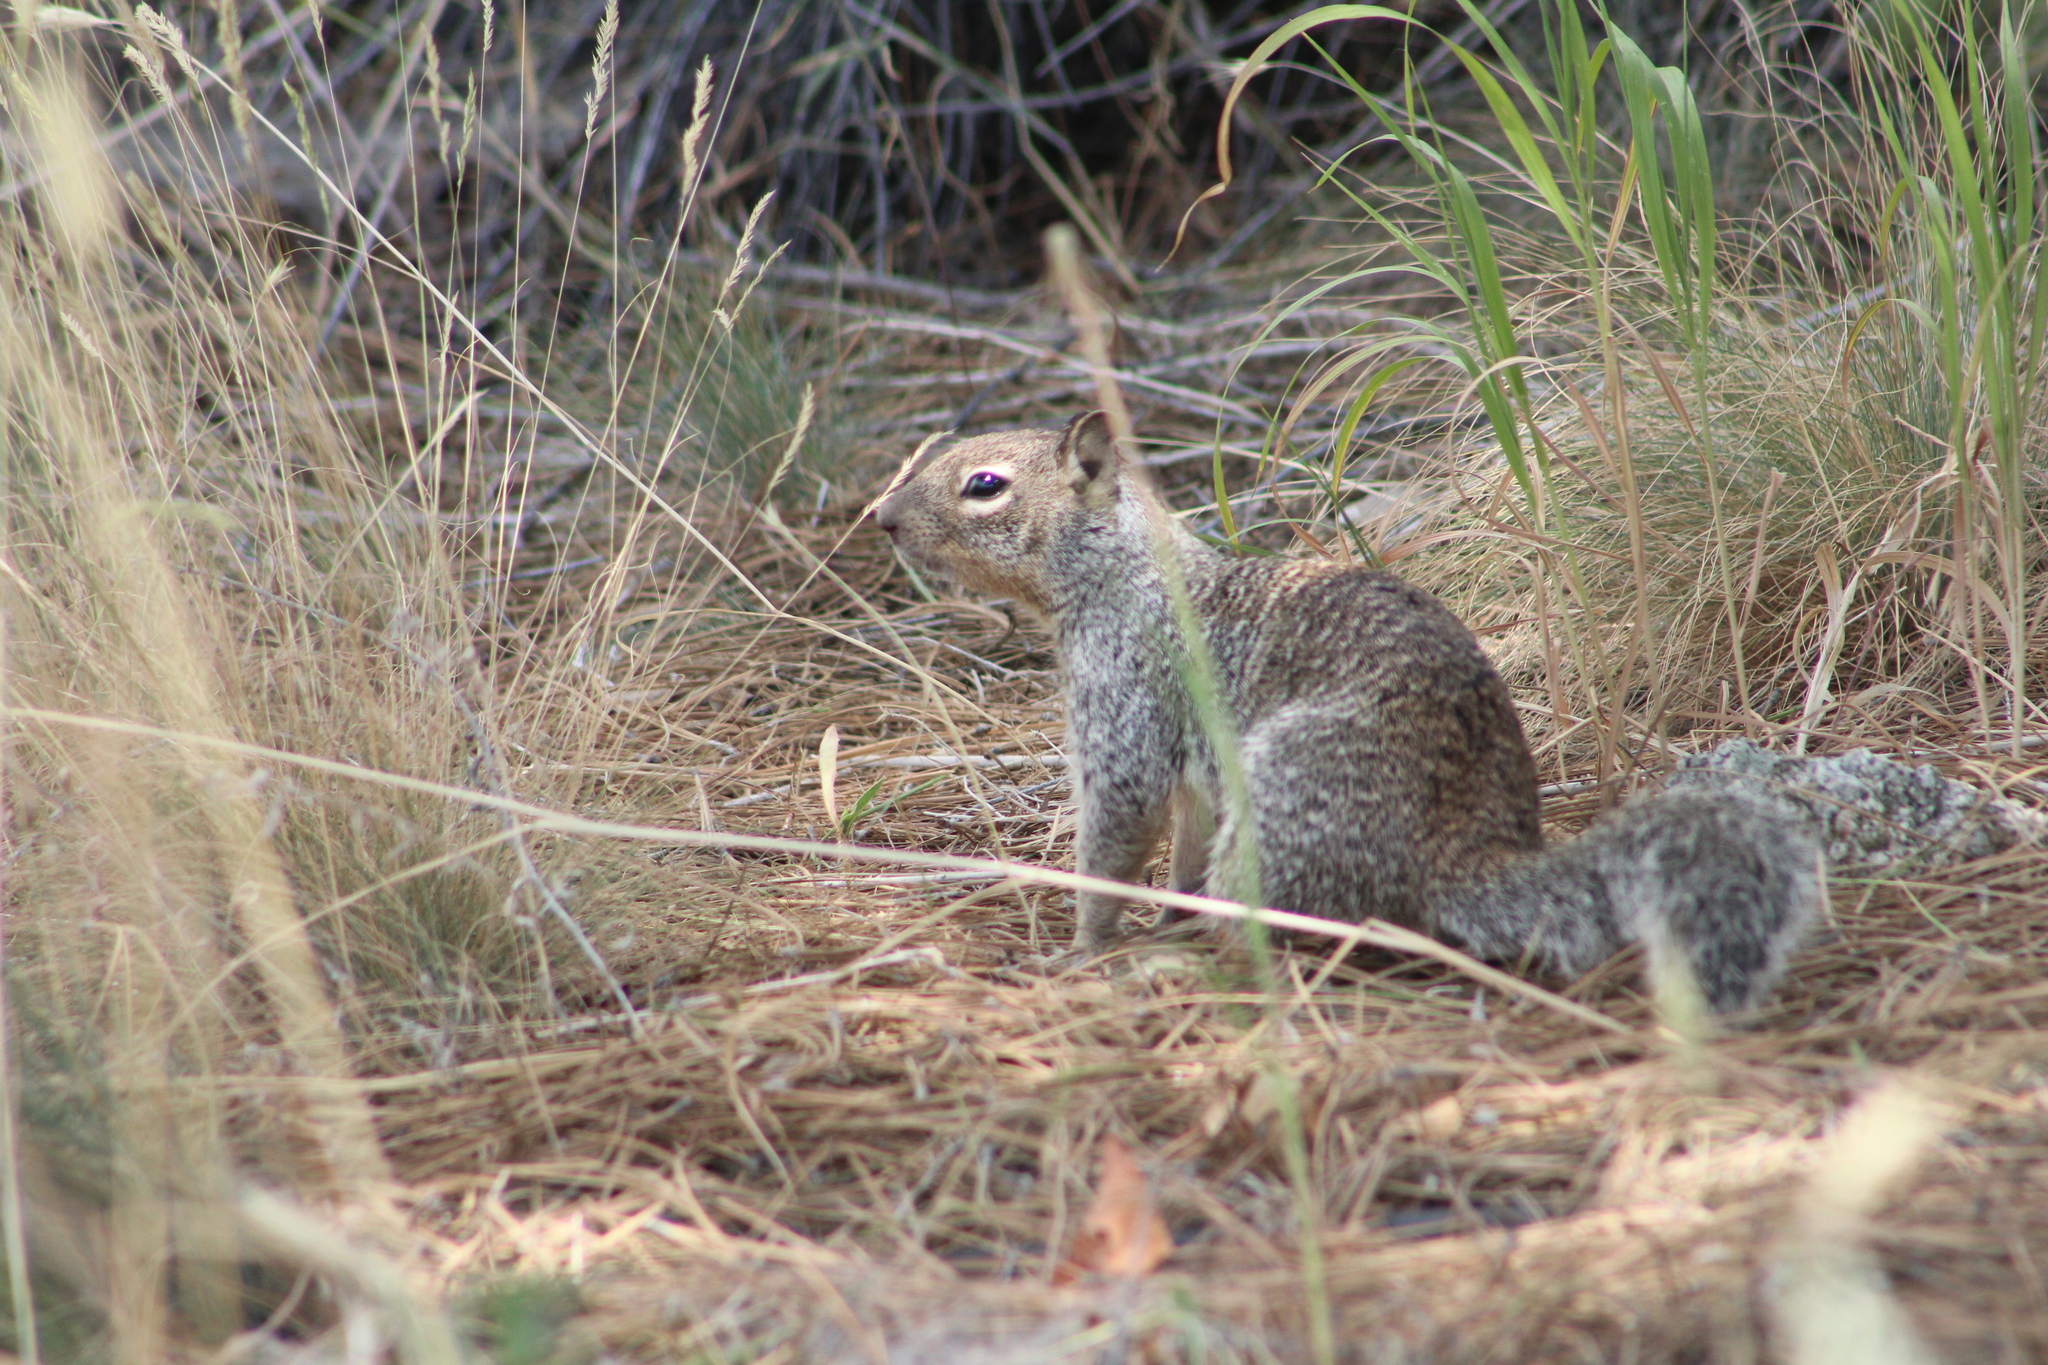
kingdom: Animalia
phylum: Chordata
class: Mammalia
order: Rodentia
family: Sciuridae
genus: Otospermophilus
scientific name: Otospermophilus variegatus
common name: Rock squirrel
